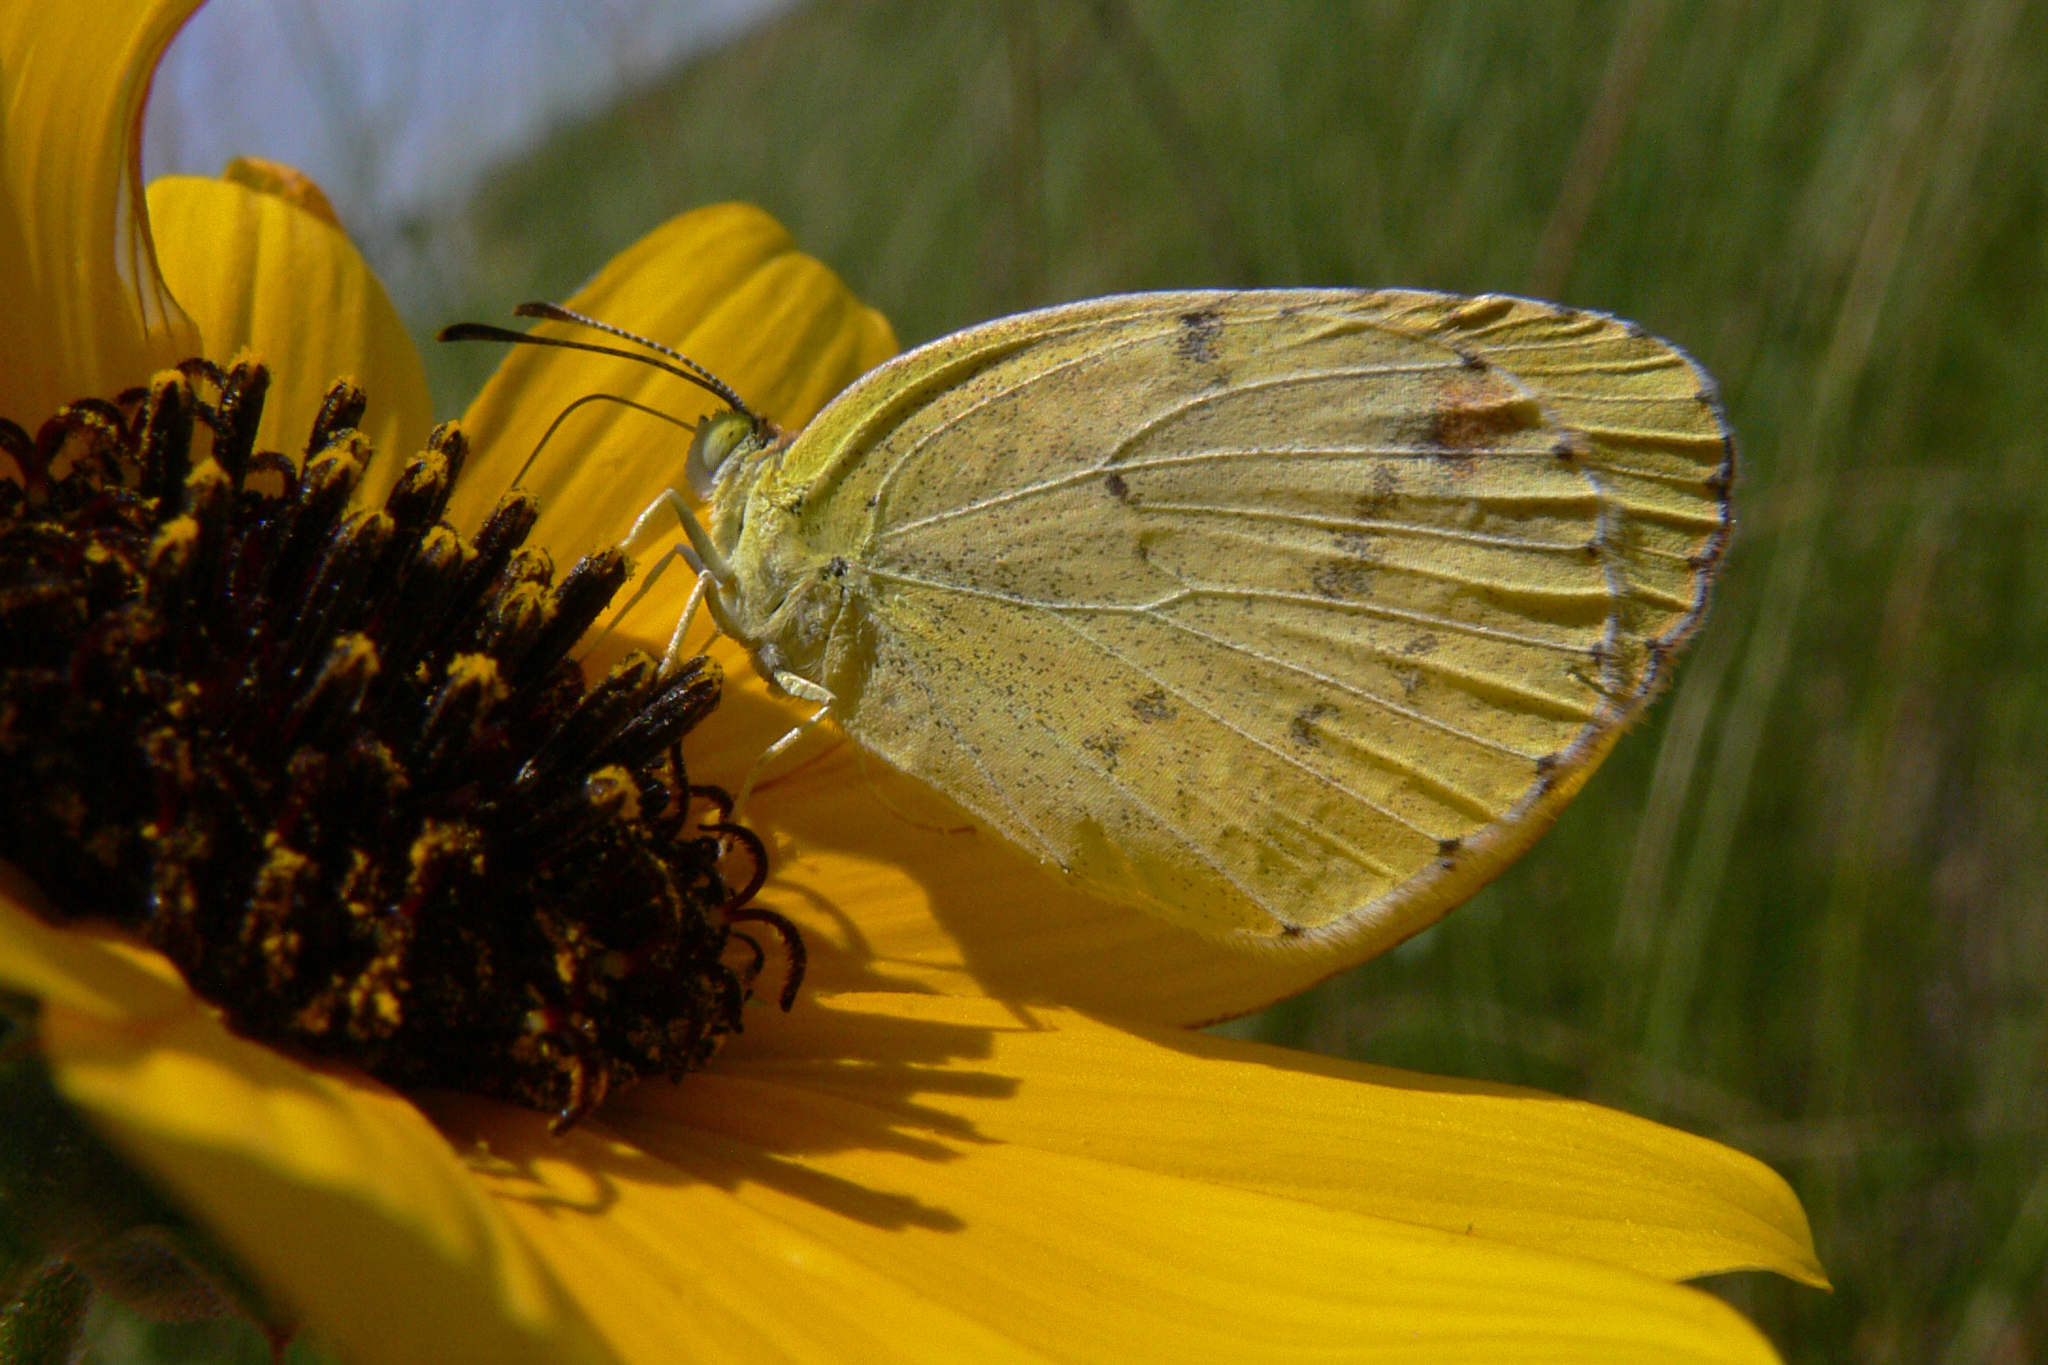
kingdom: Animalia
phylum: Arthropoda
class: Insecta
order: Lepidoptera
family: Pieridae
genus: Pyrisitia
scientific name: Pyrisitia lisa
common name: Little yellow
